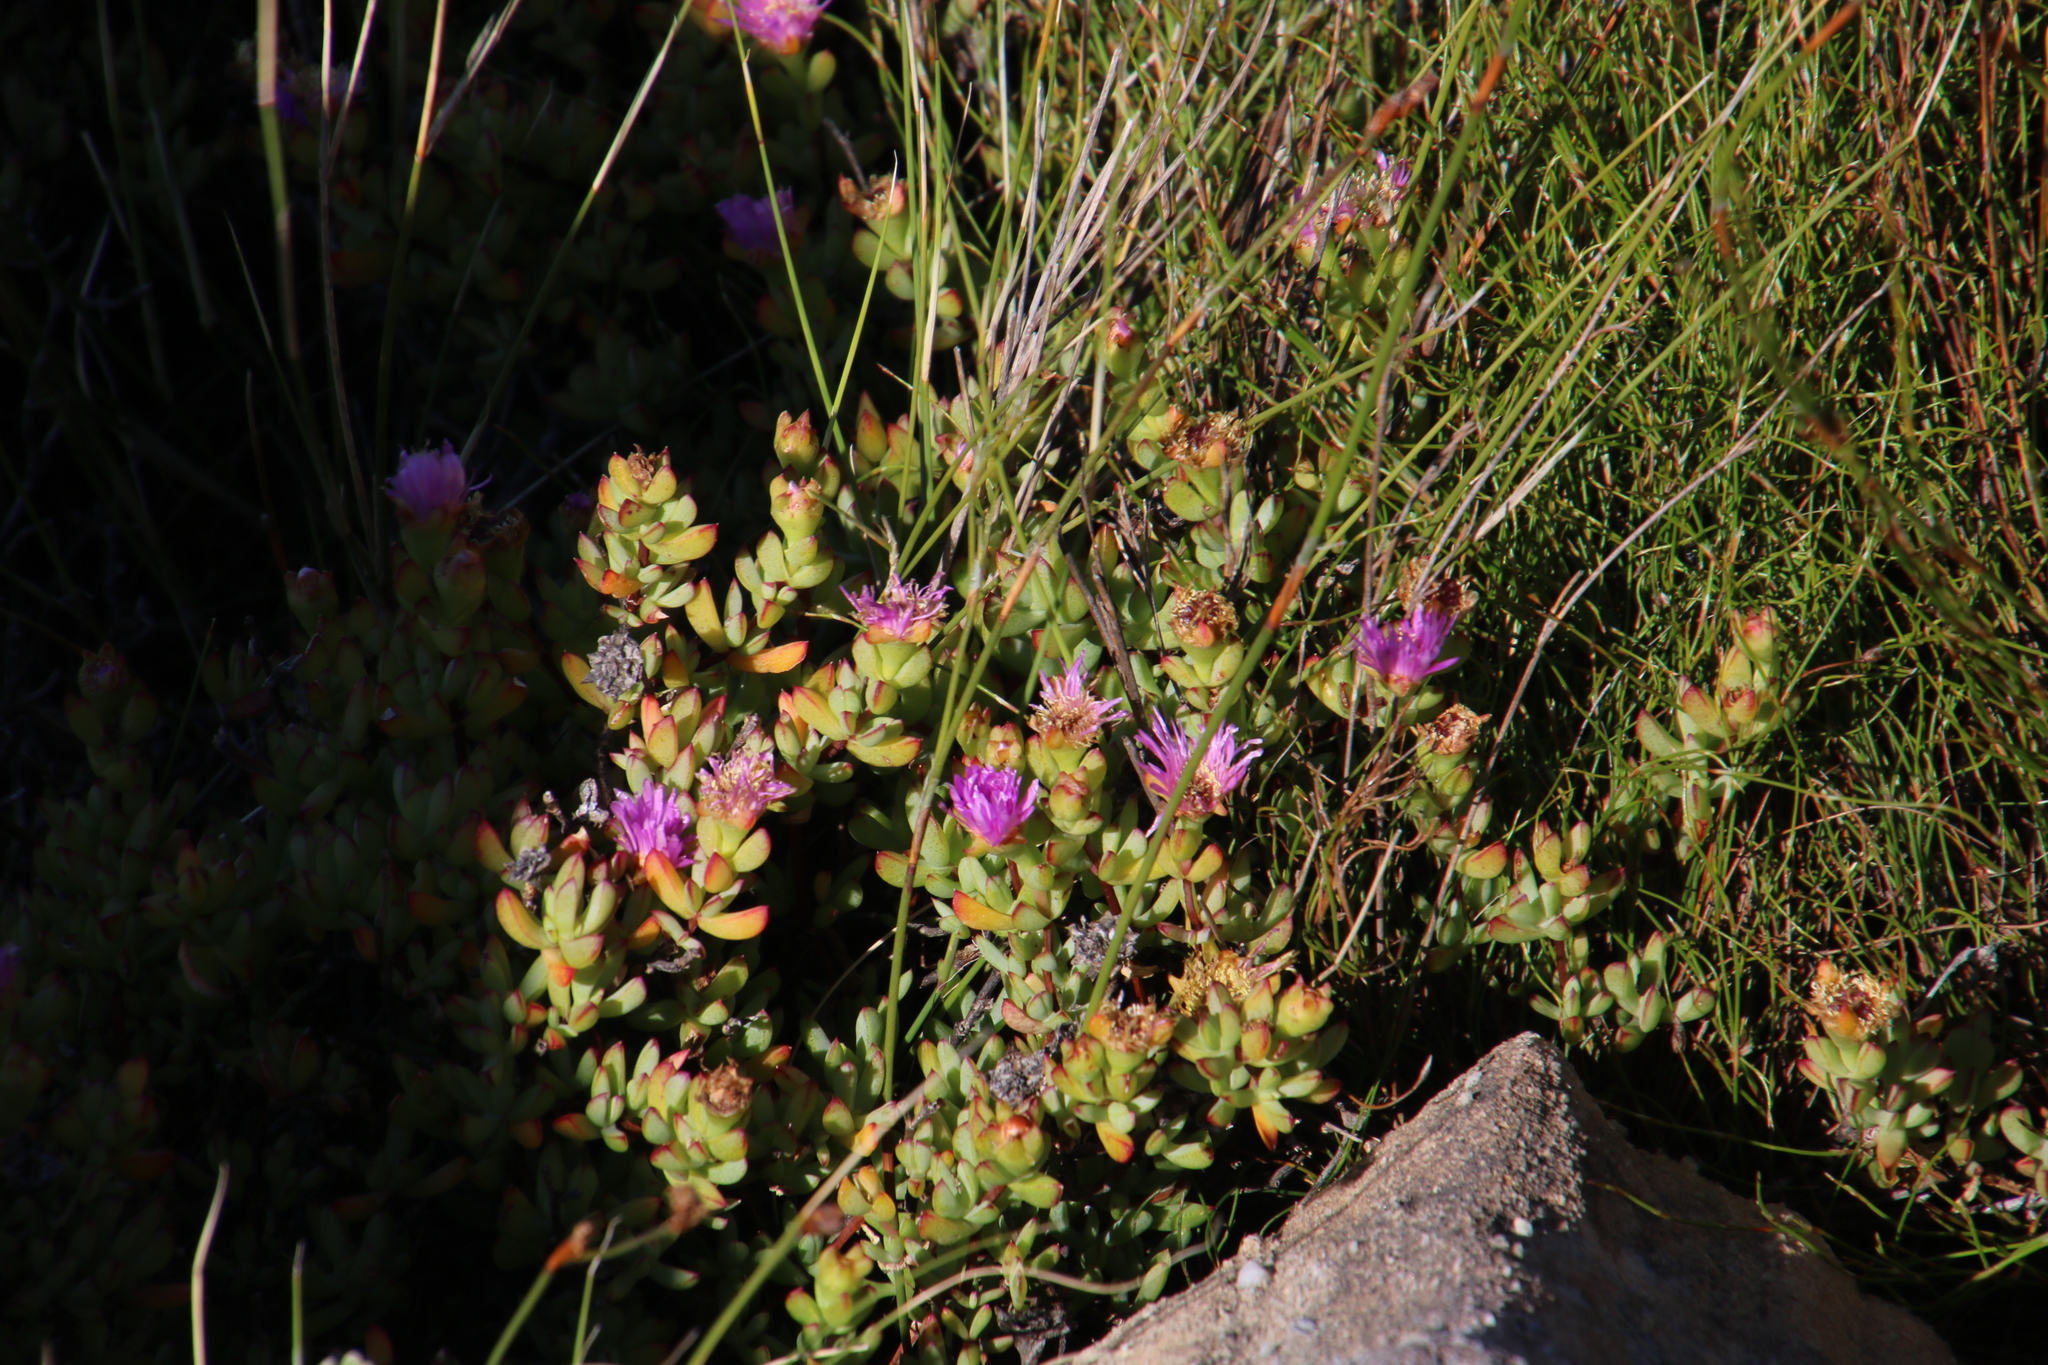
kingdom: Plantae
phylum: Tracheophyta
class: Magnoliopsida
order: Caryophyllales
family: Aizoaceae
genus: Oscularia
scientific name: Oscularia falciformis
